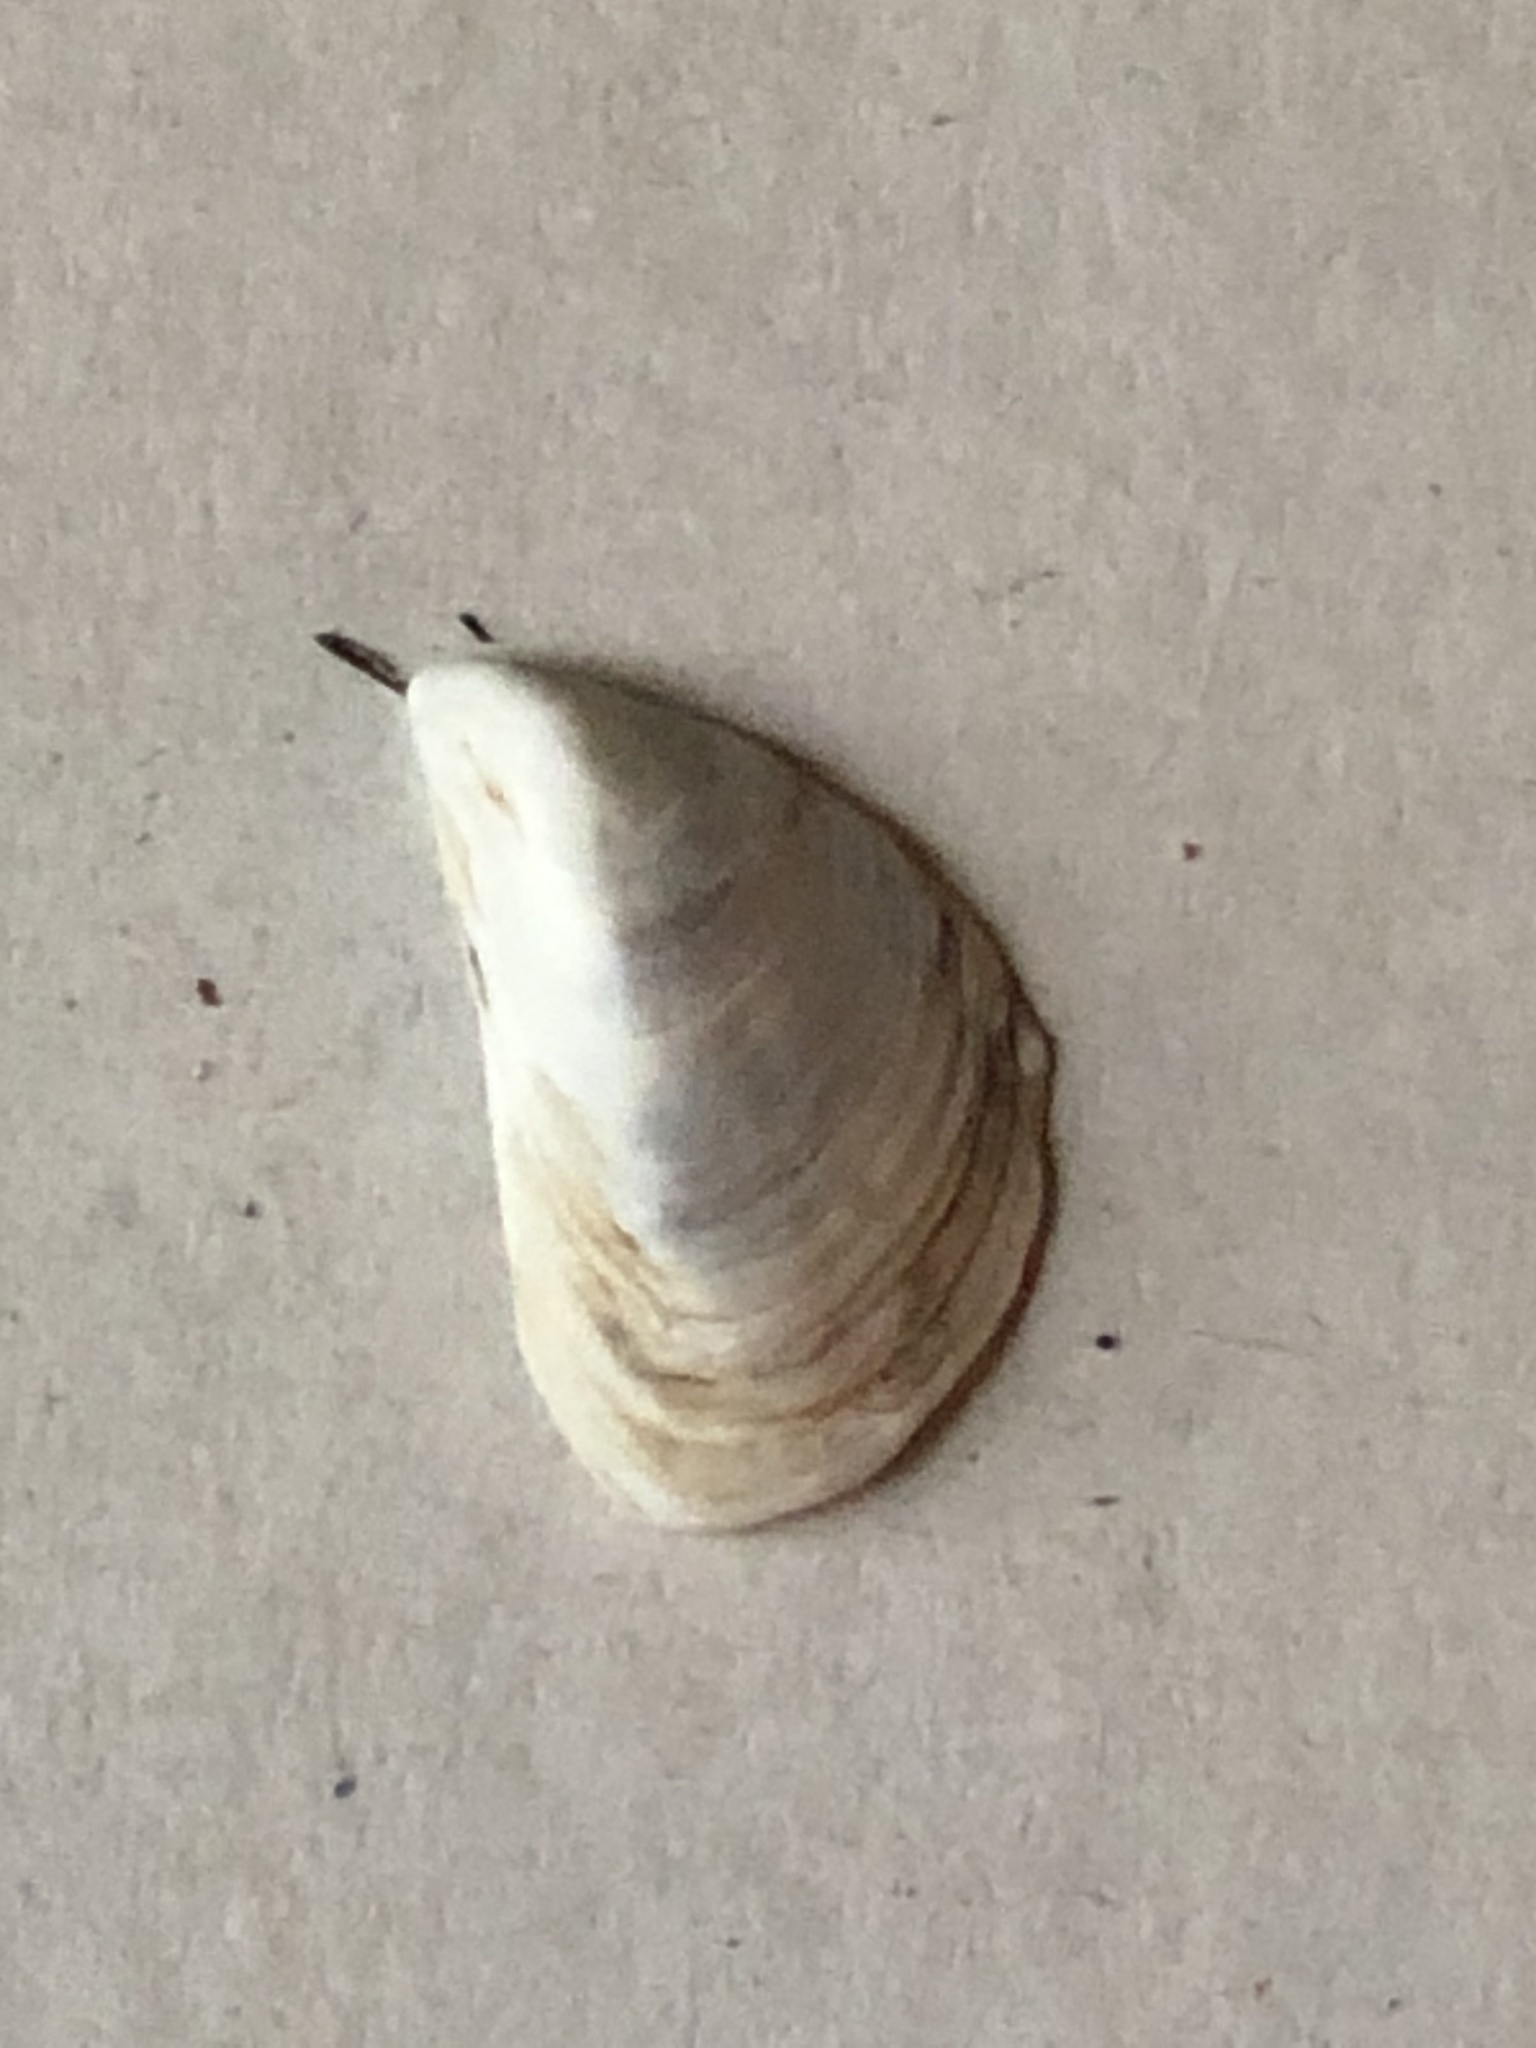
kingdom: Animalia
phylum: Mollusca
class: Bivalvia
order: Myida
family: Dreissenidae
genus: Dreissena
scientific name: Dreissena bugensis
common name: Quagga mussel
